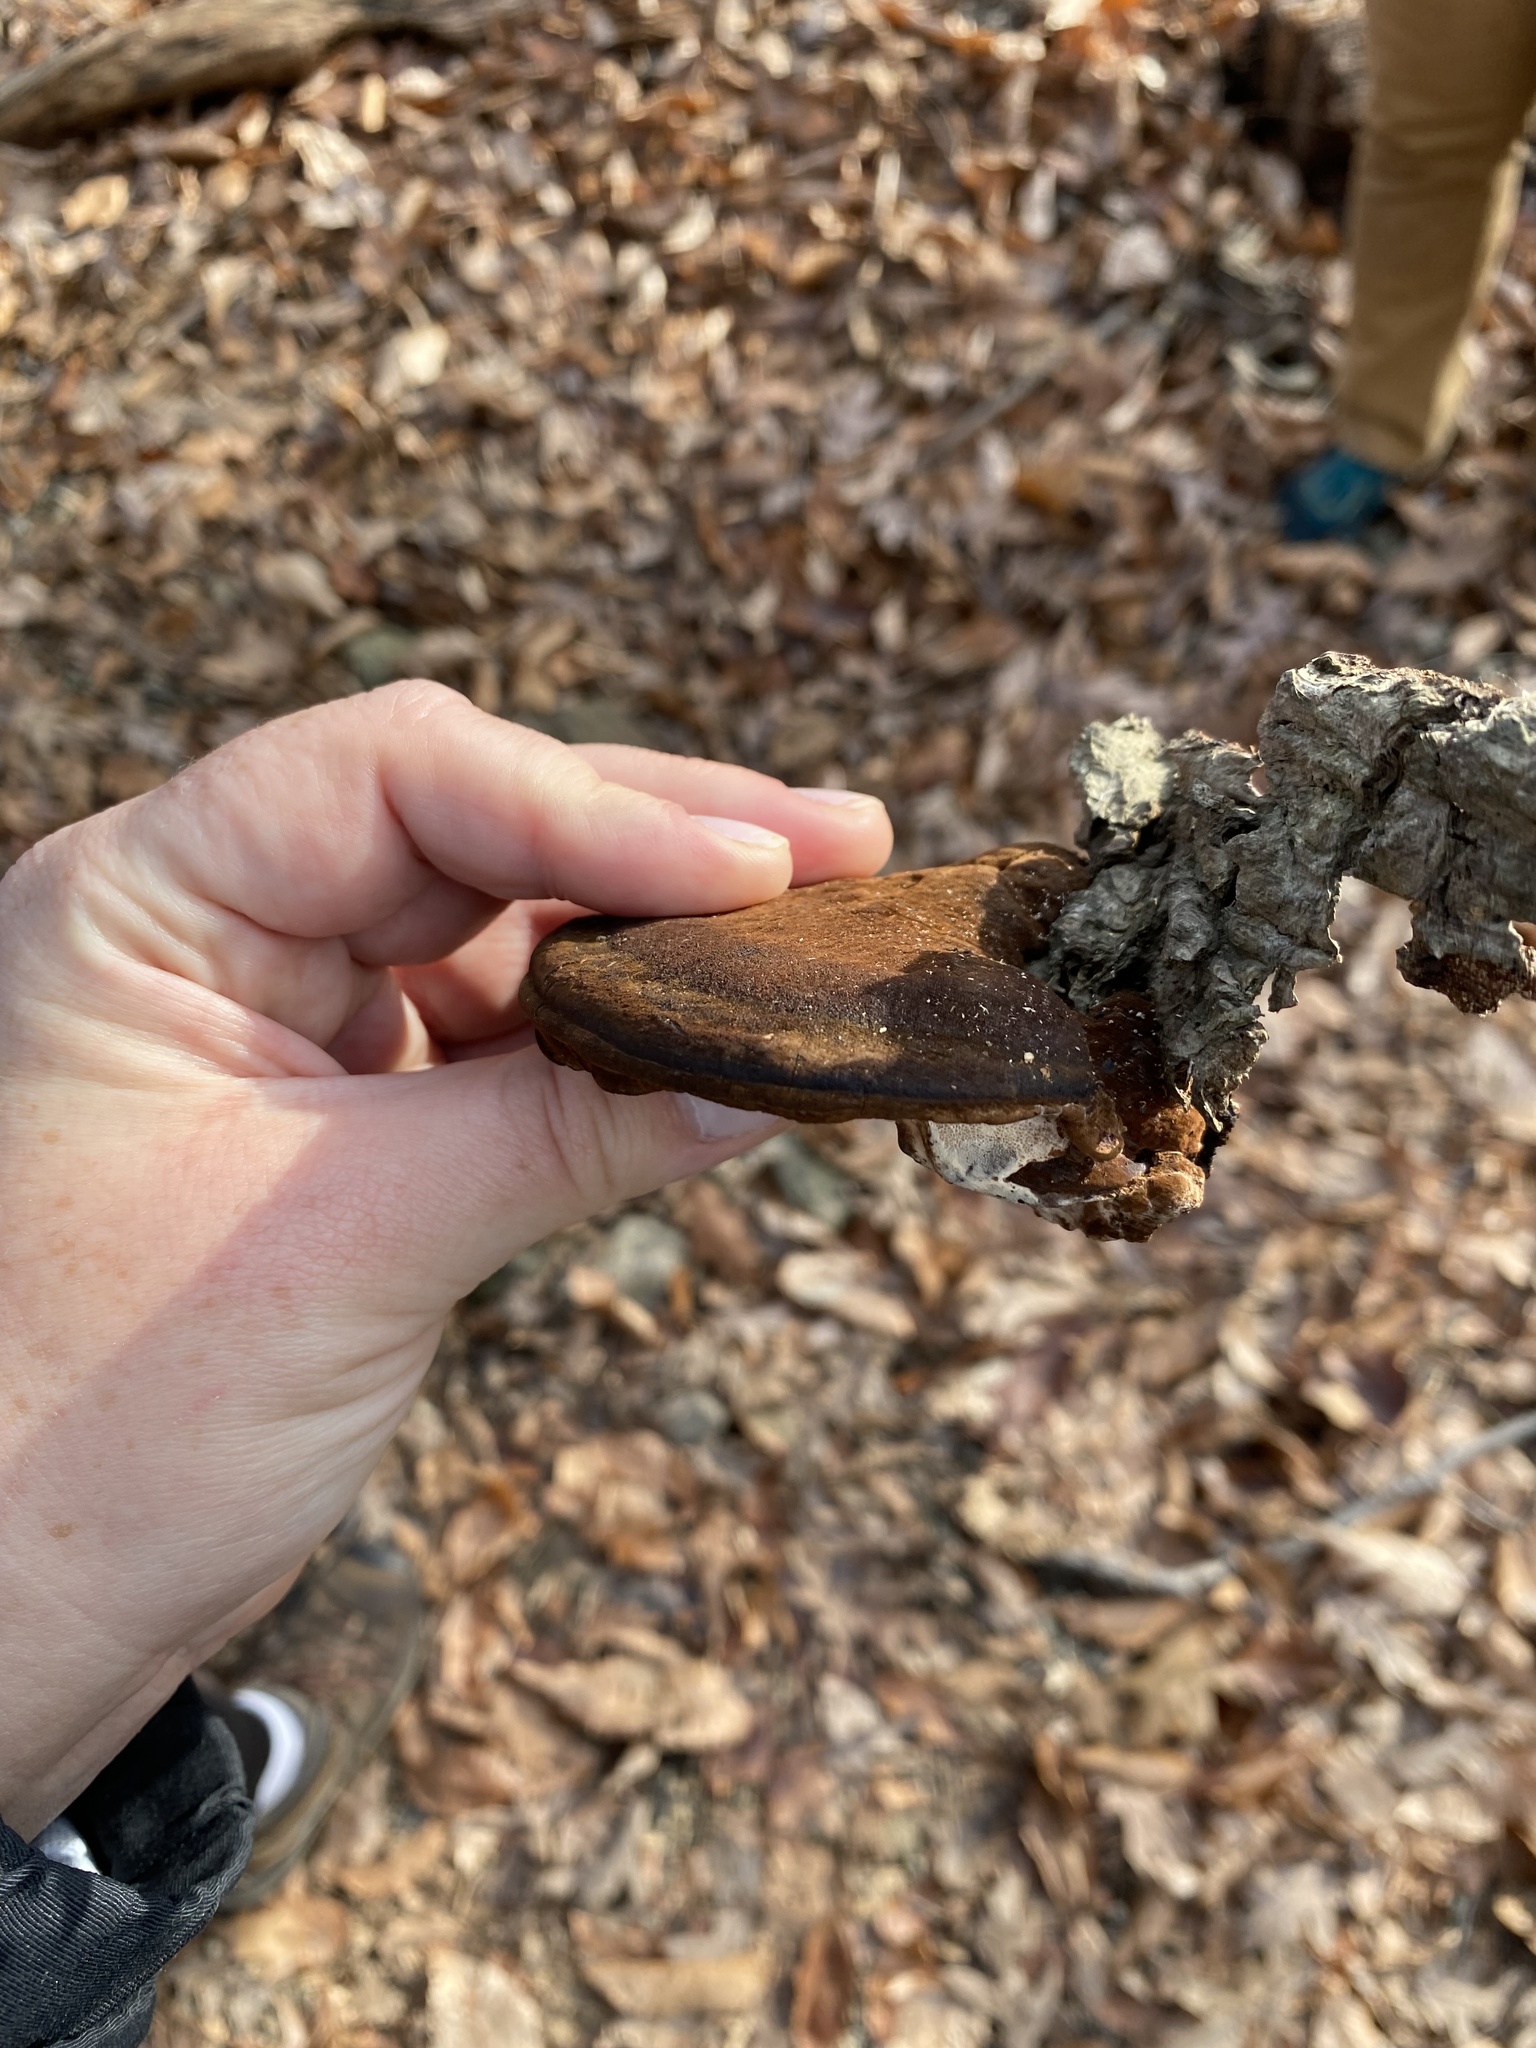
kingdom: Fungi
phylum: Basidiomycota
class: Agaricomycetes
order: Polyporales
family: Ischnodermataceae
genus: Ischnoderma
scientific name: Ischnoderma resinosum
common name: Resinous polypore
